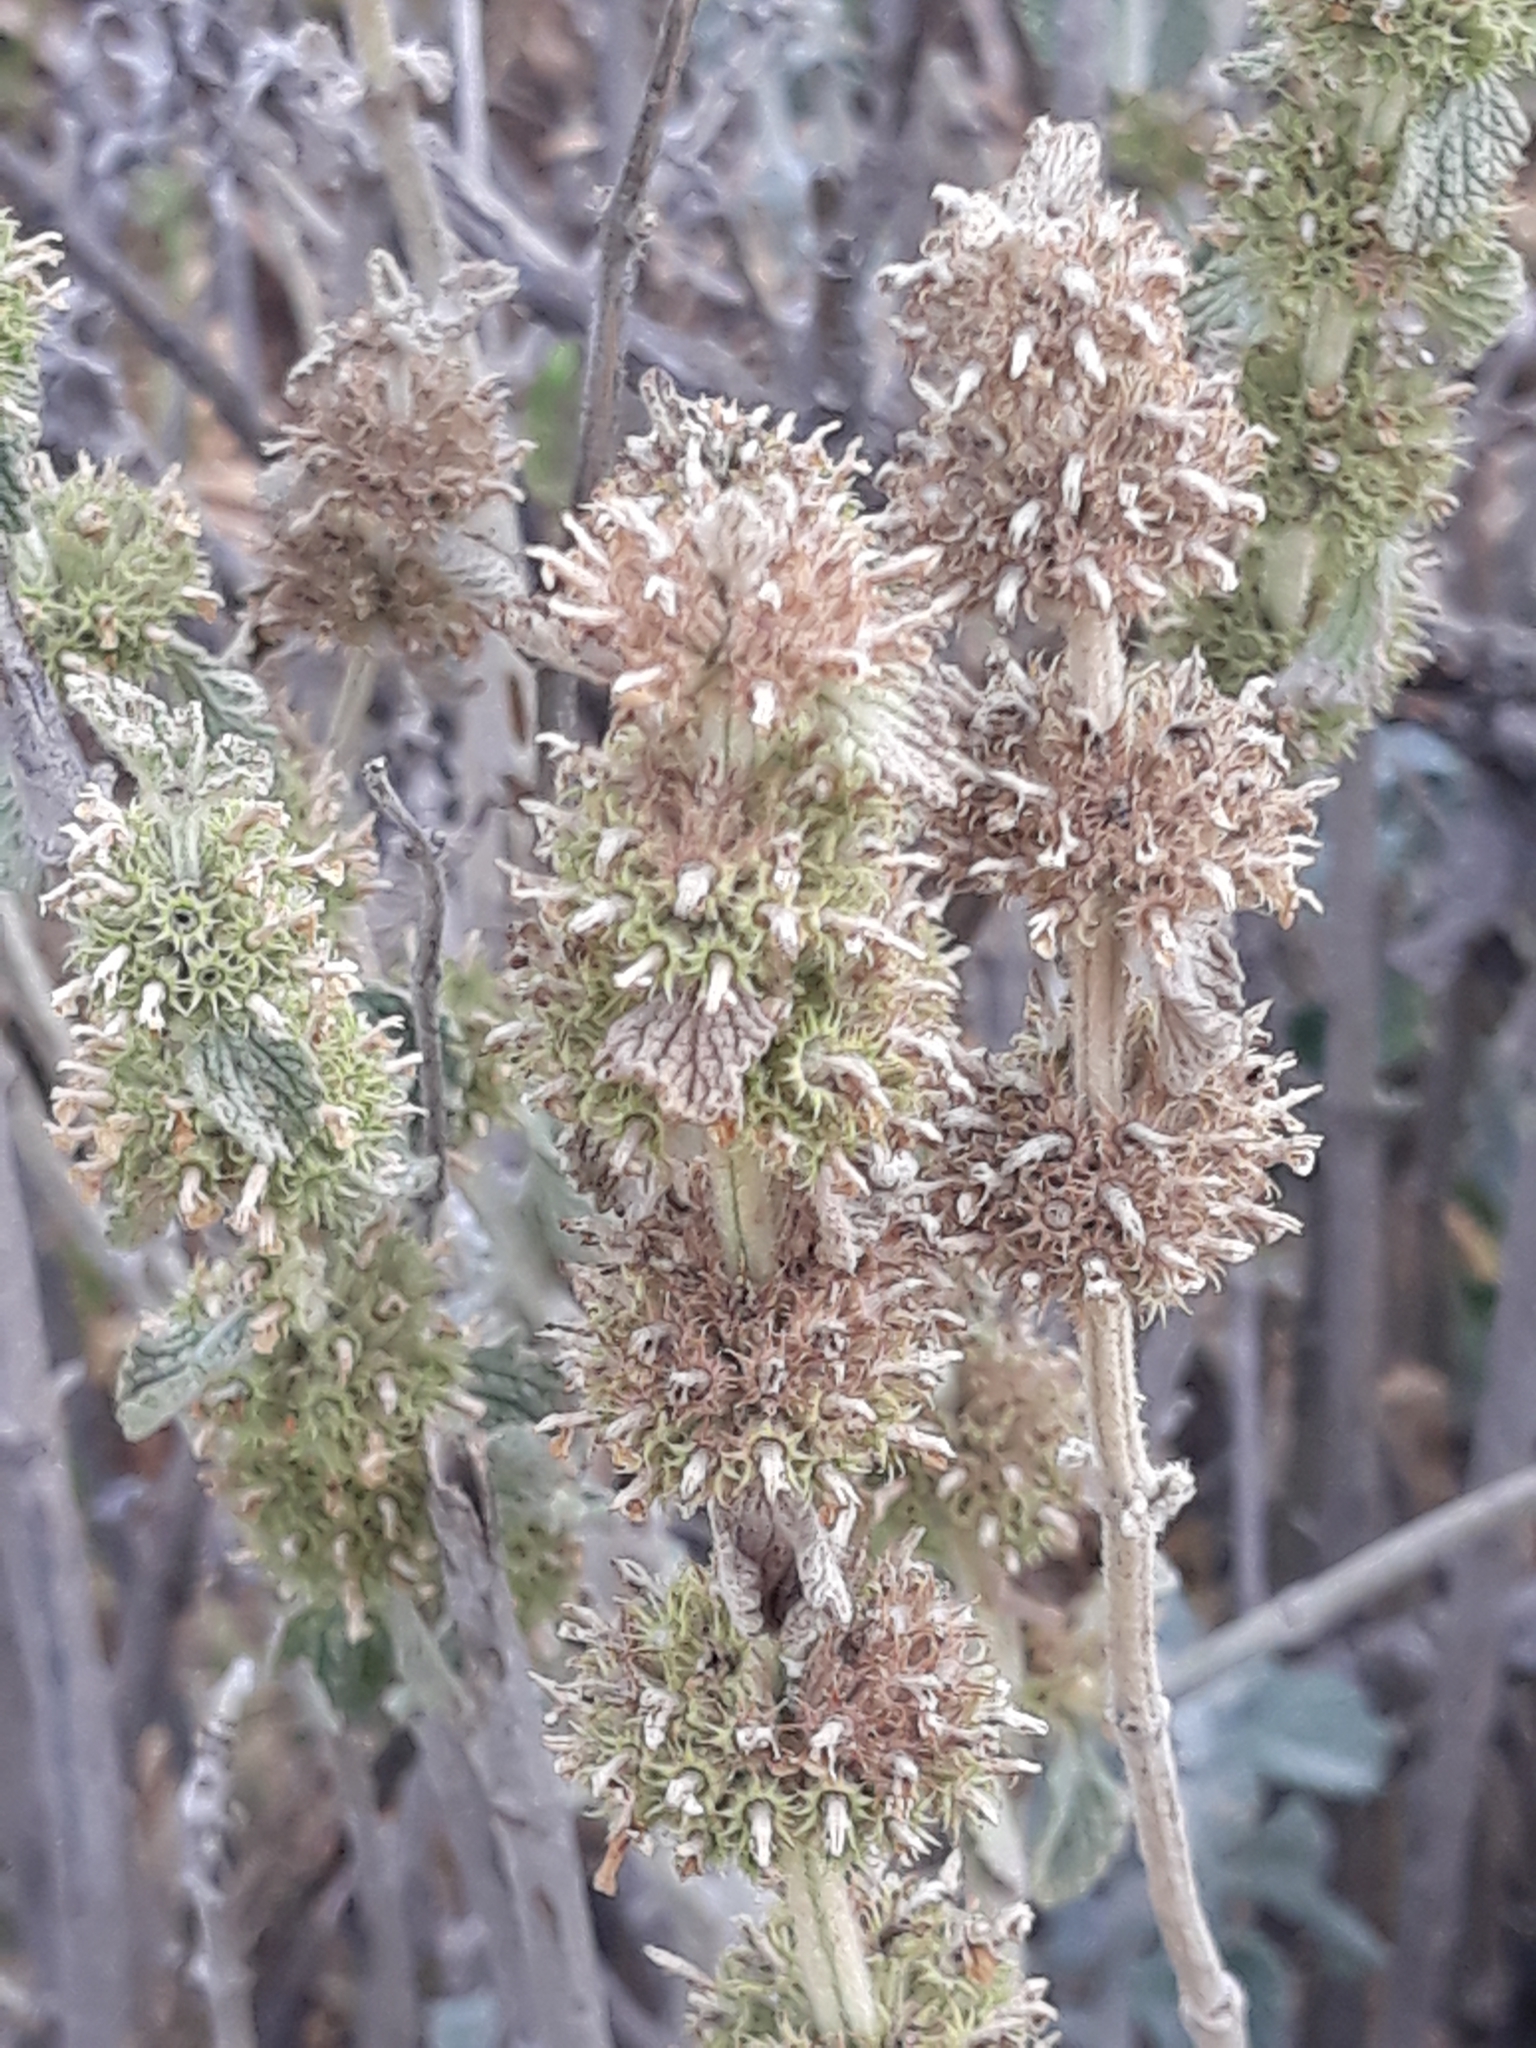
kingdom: Plantae
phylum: Tracheophyta
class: Magnoliopsida
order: Lamiales
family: Lamiaceae
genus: Marrubium
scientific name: Marrubium vulgare
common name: Horehound
